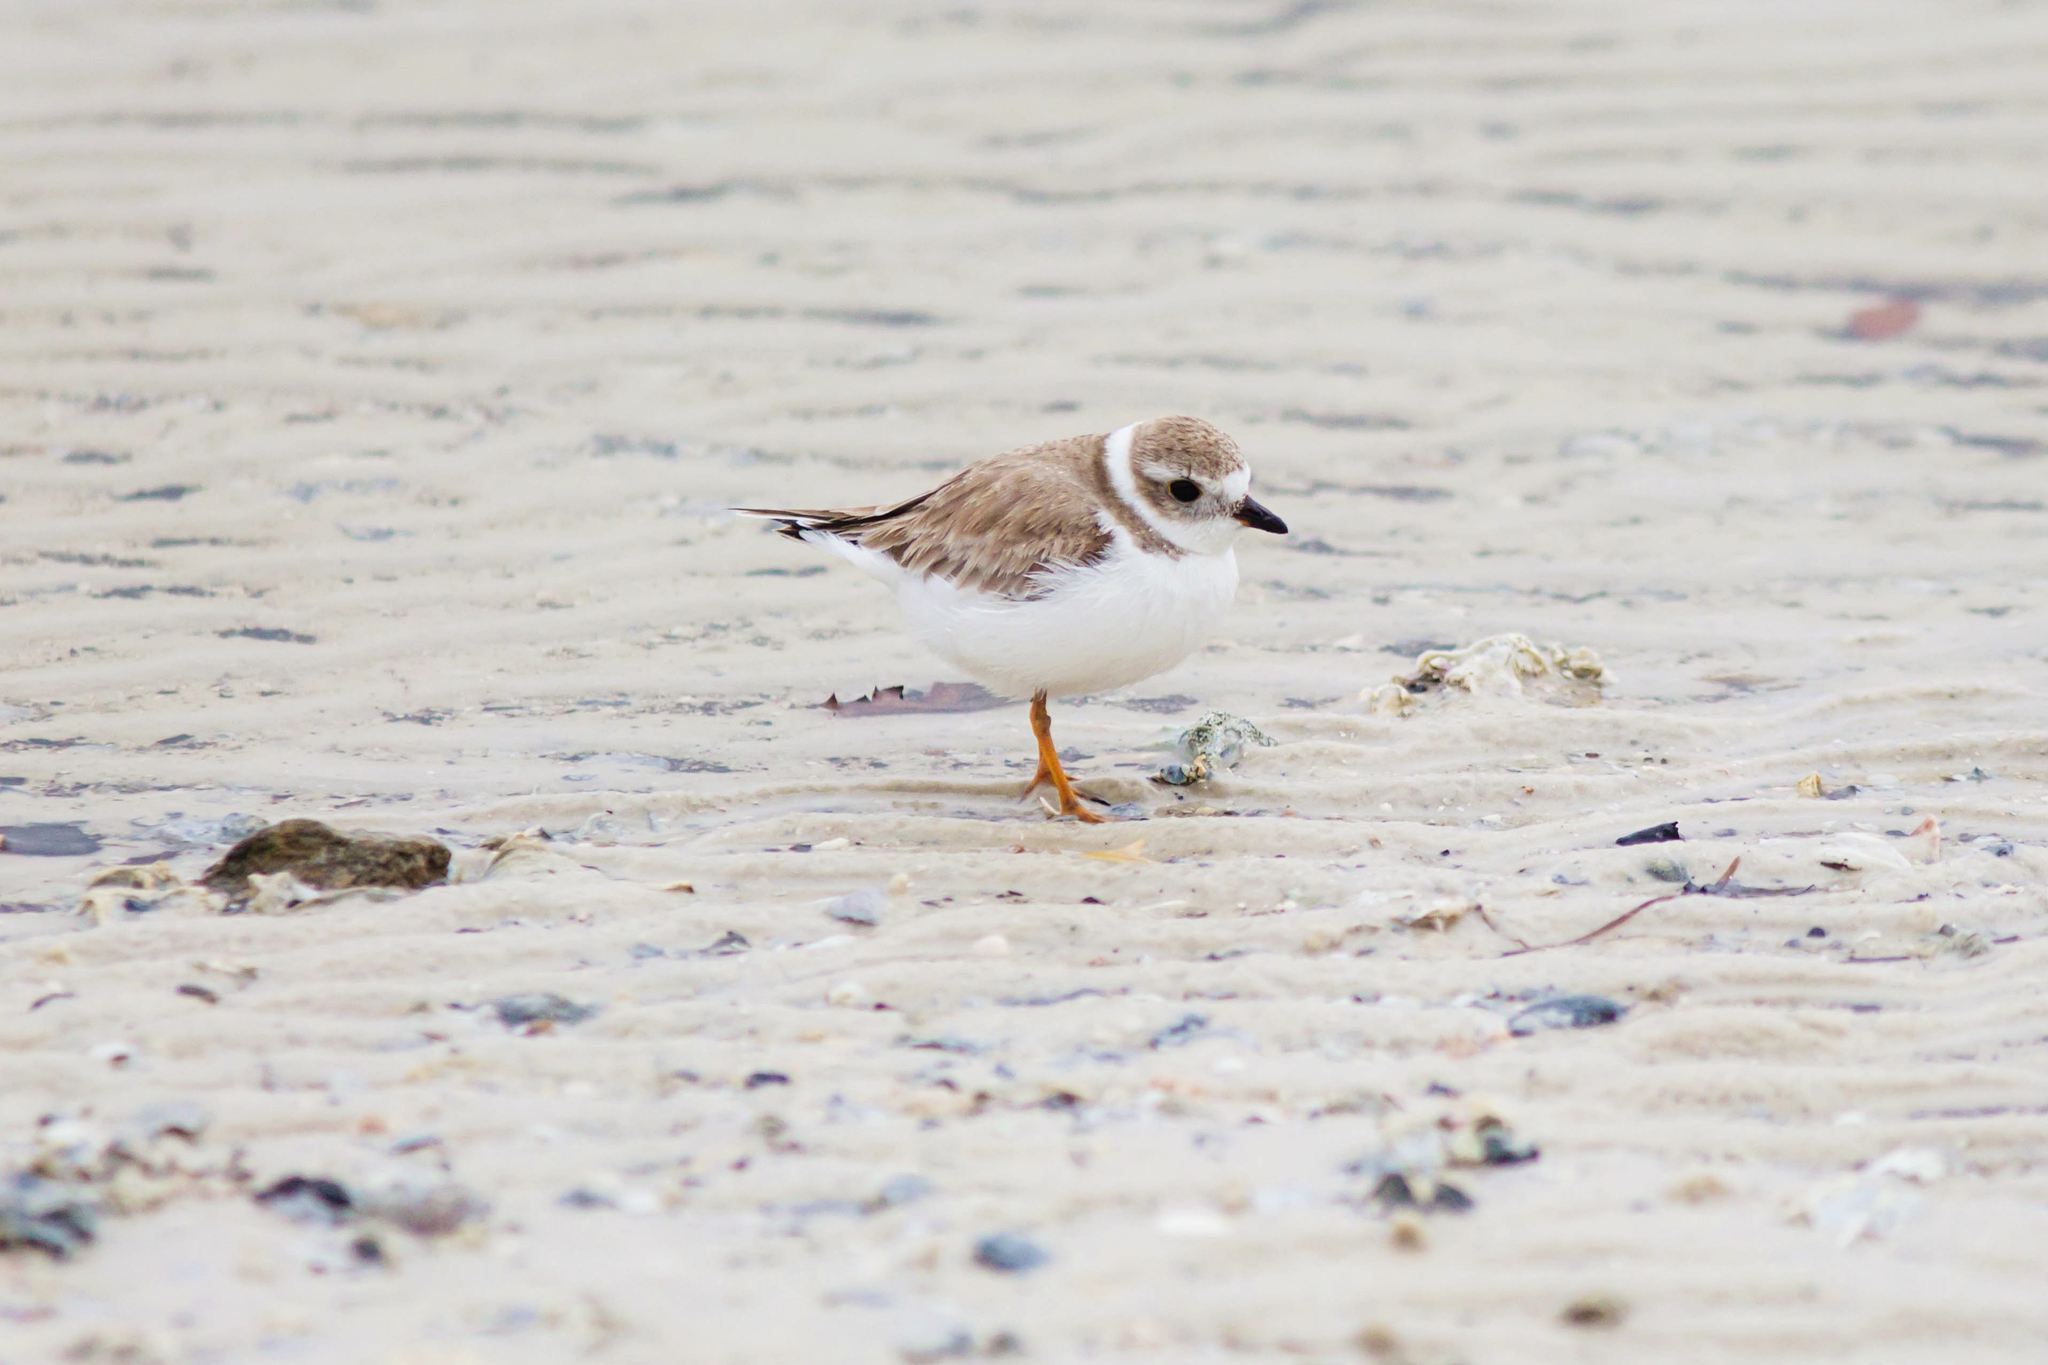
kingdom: Animalia
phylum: Chordata
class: Aves
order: Charadriiformes
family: Charadriidae
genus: Charadrius
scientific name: Charadrius melodus
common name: Piping plover
